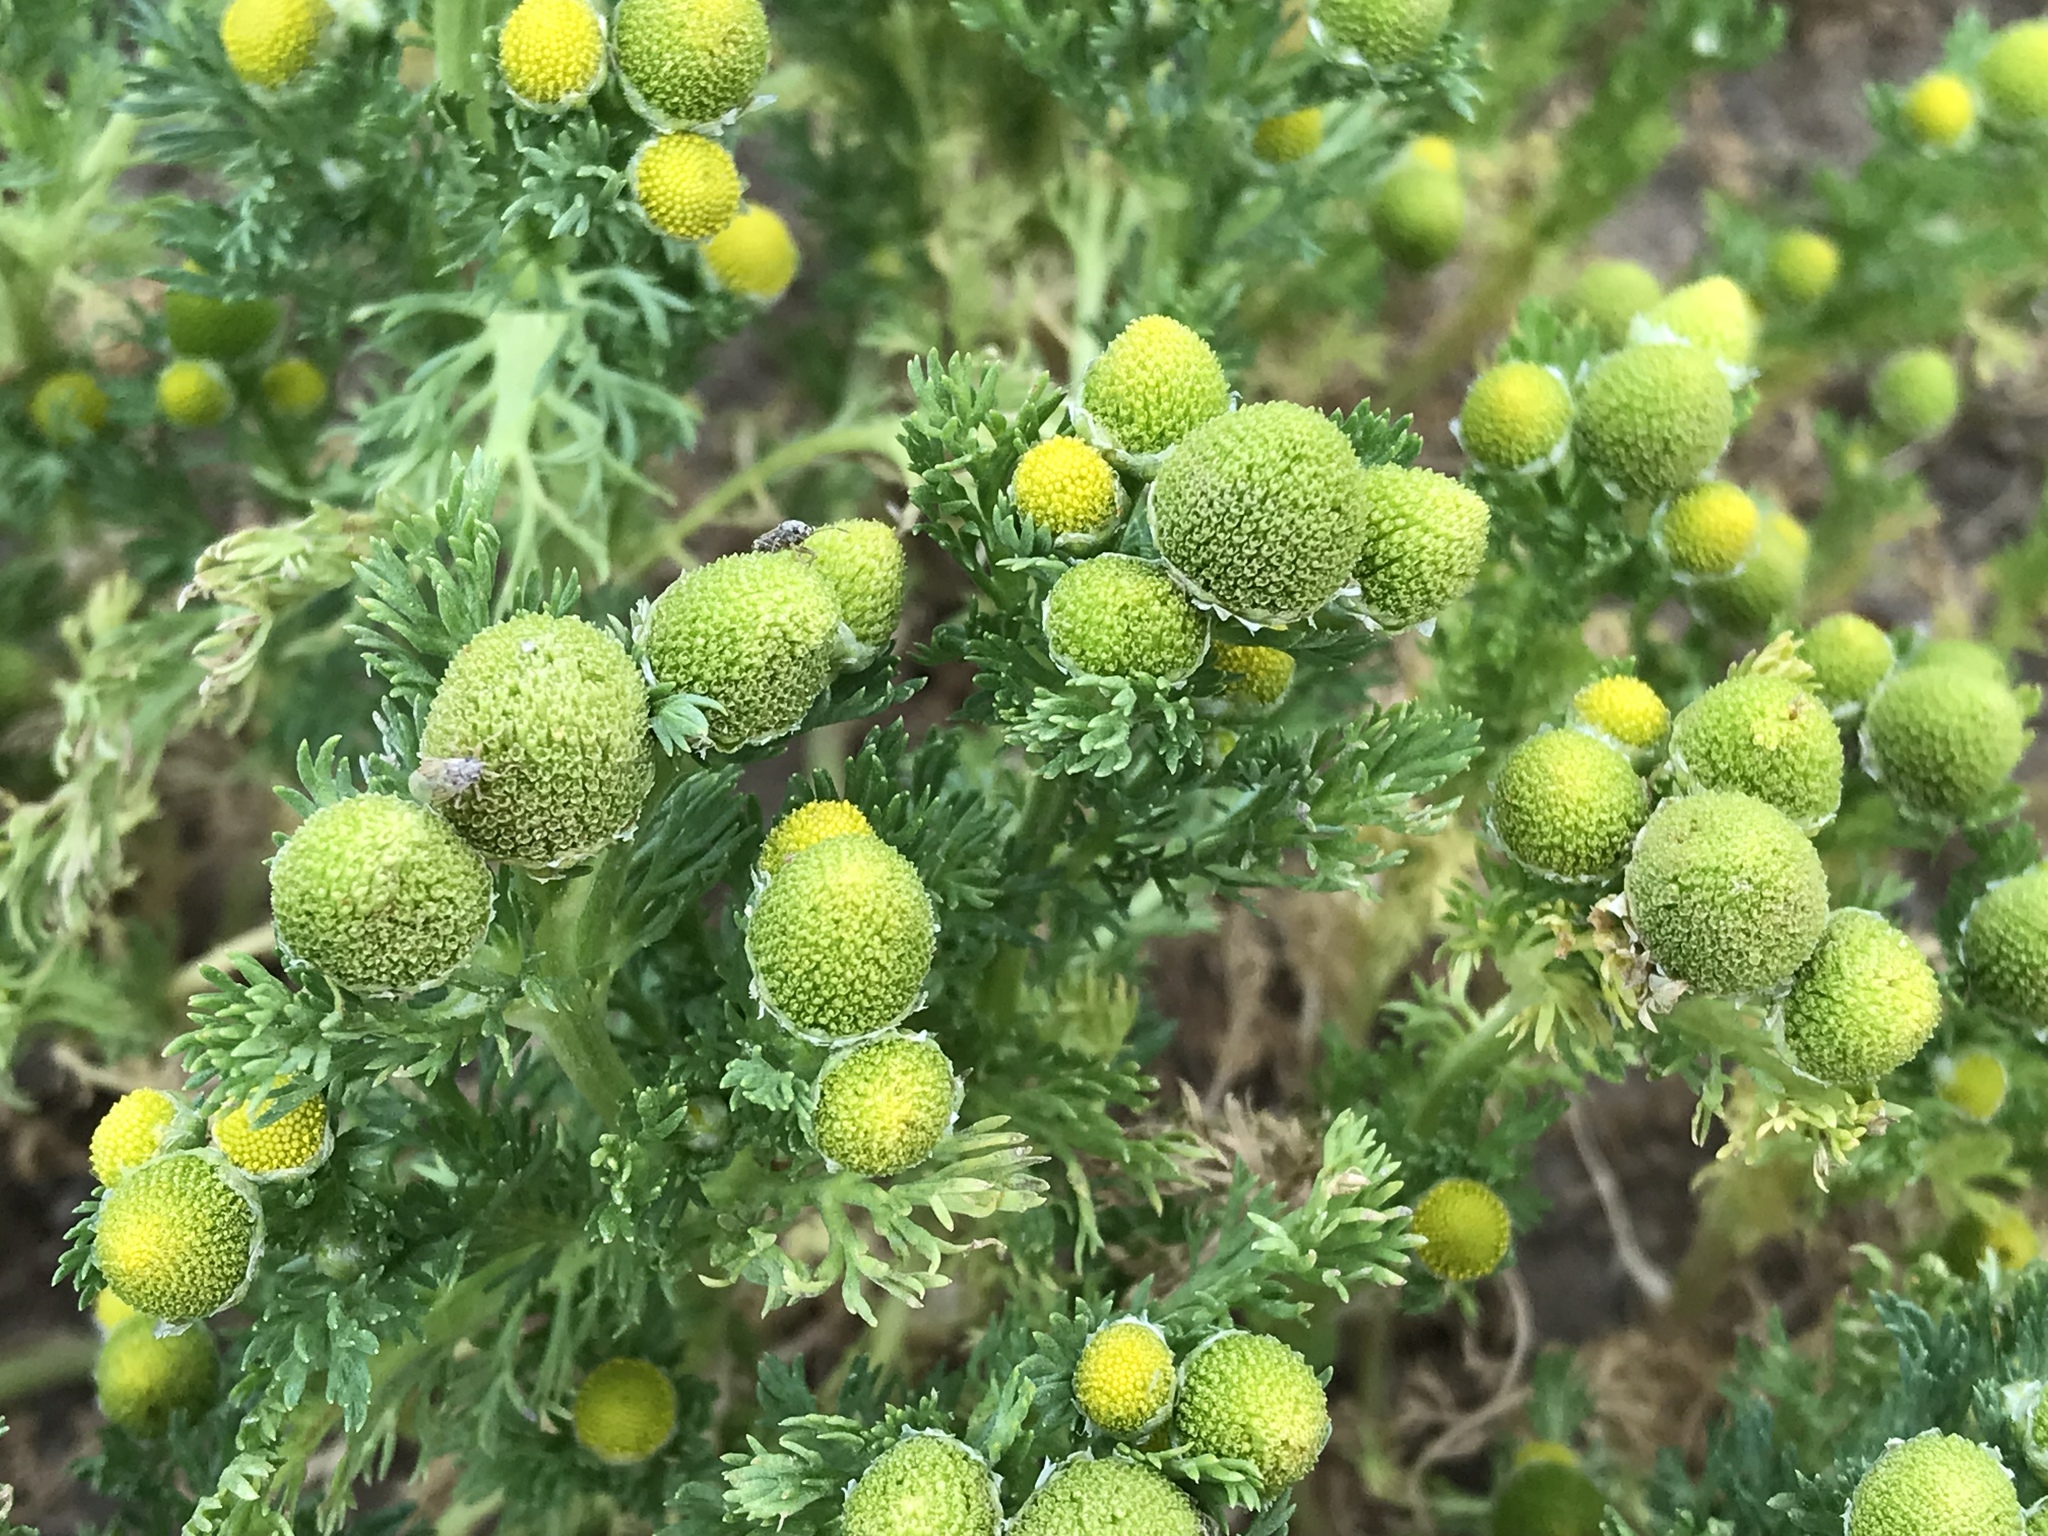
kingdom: Plantae
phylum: Tracheophyta
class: Magnoliopsida
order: Asterales
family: Asteraceae
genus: Matricaria
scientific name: Matricaria discoidea
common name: Disc mayweed
